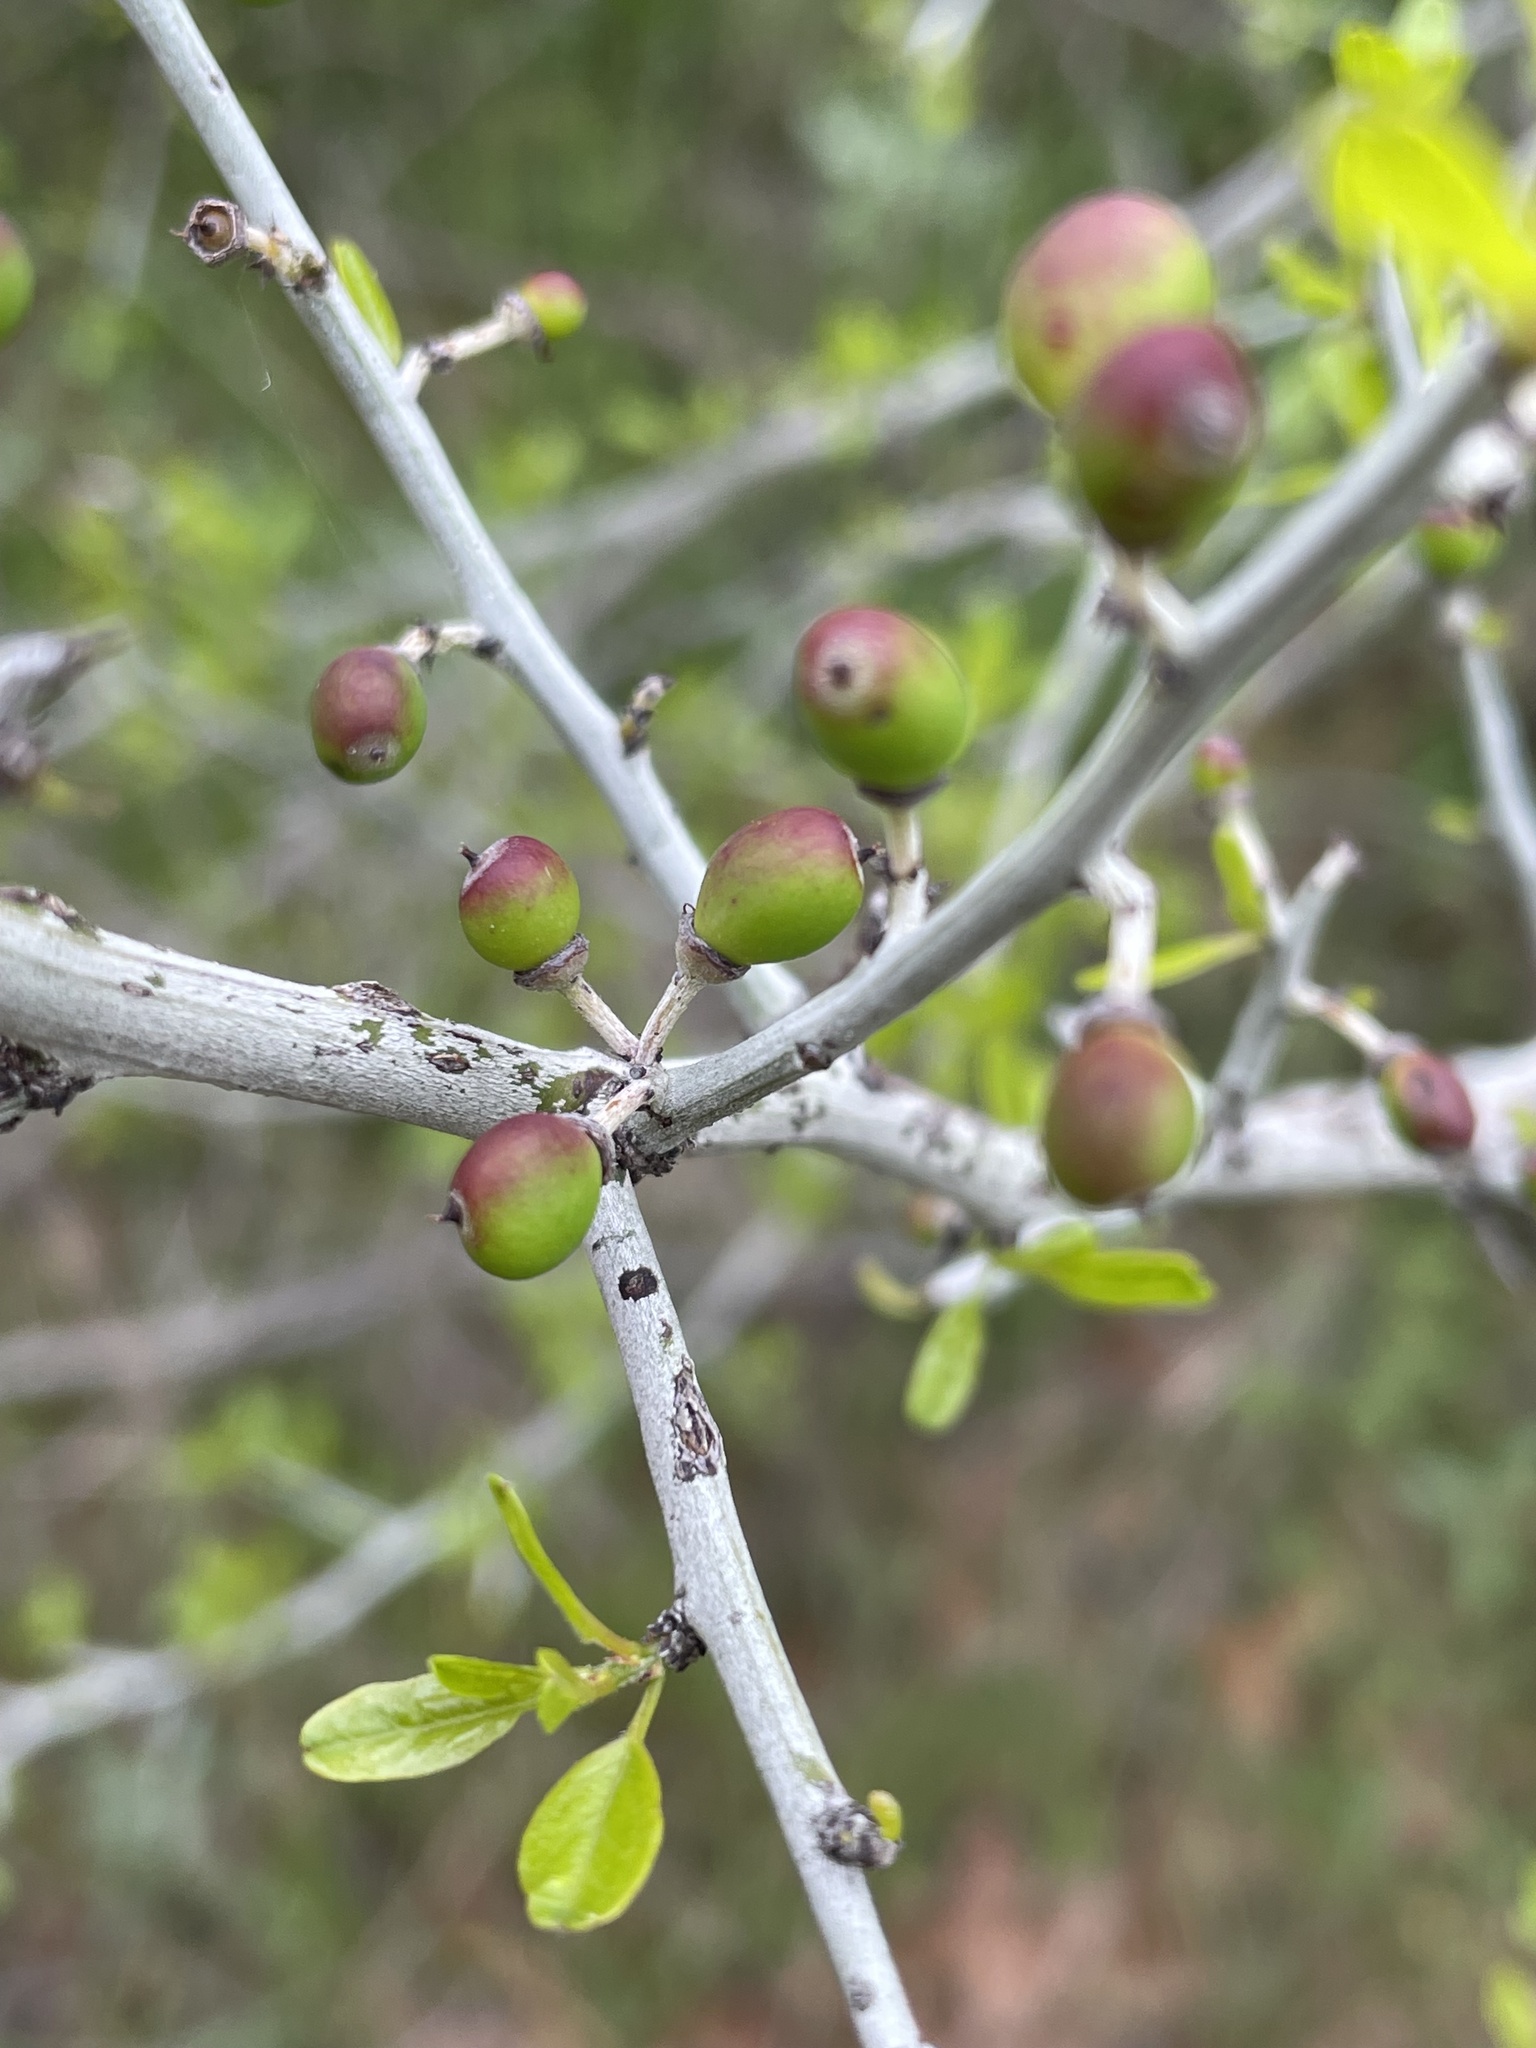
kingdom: Plantae
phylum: Tracheophyta
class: Magnoliopsida
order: Rosales
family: Rhamnaceae
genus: Sarcomphalus
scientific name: Sarcomphalus obtusifolius
